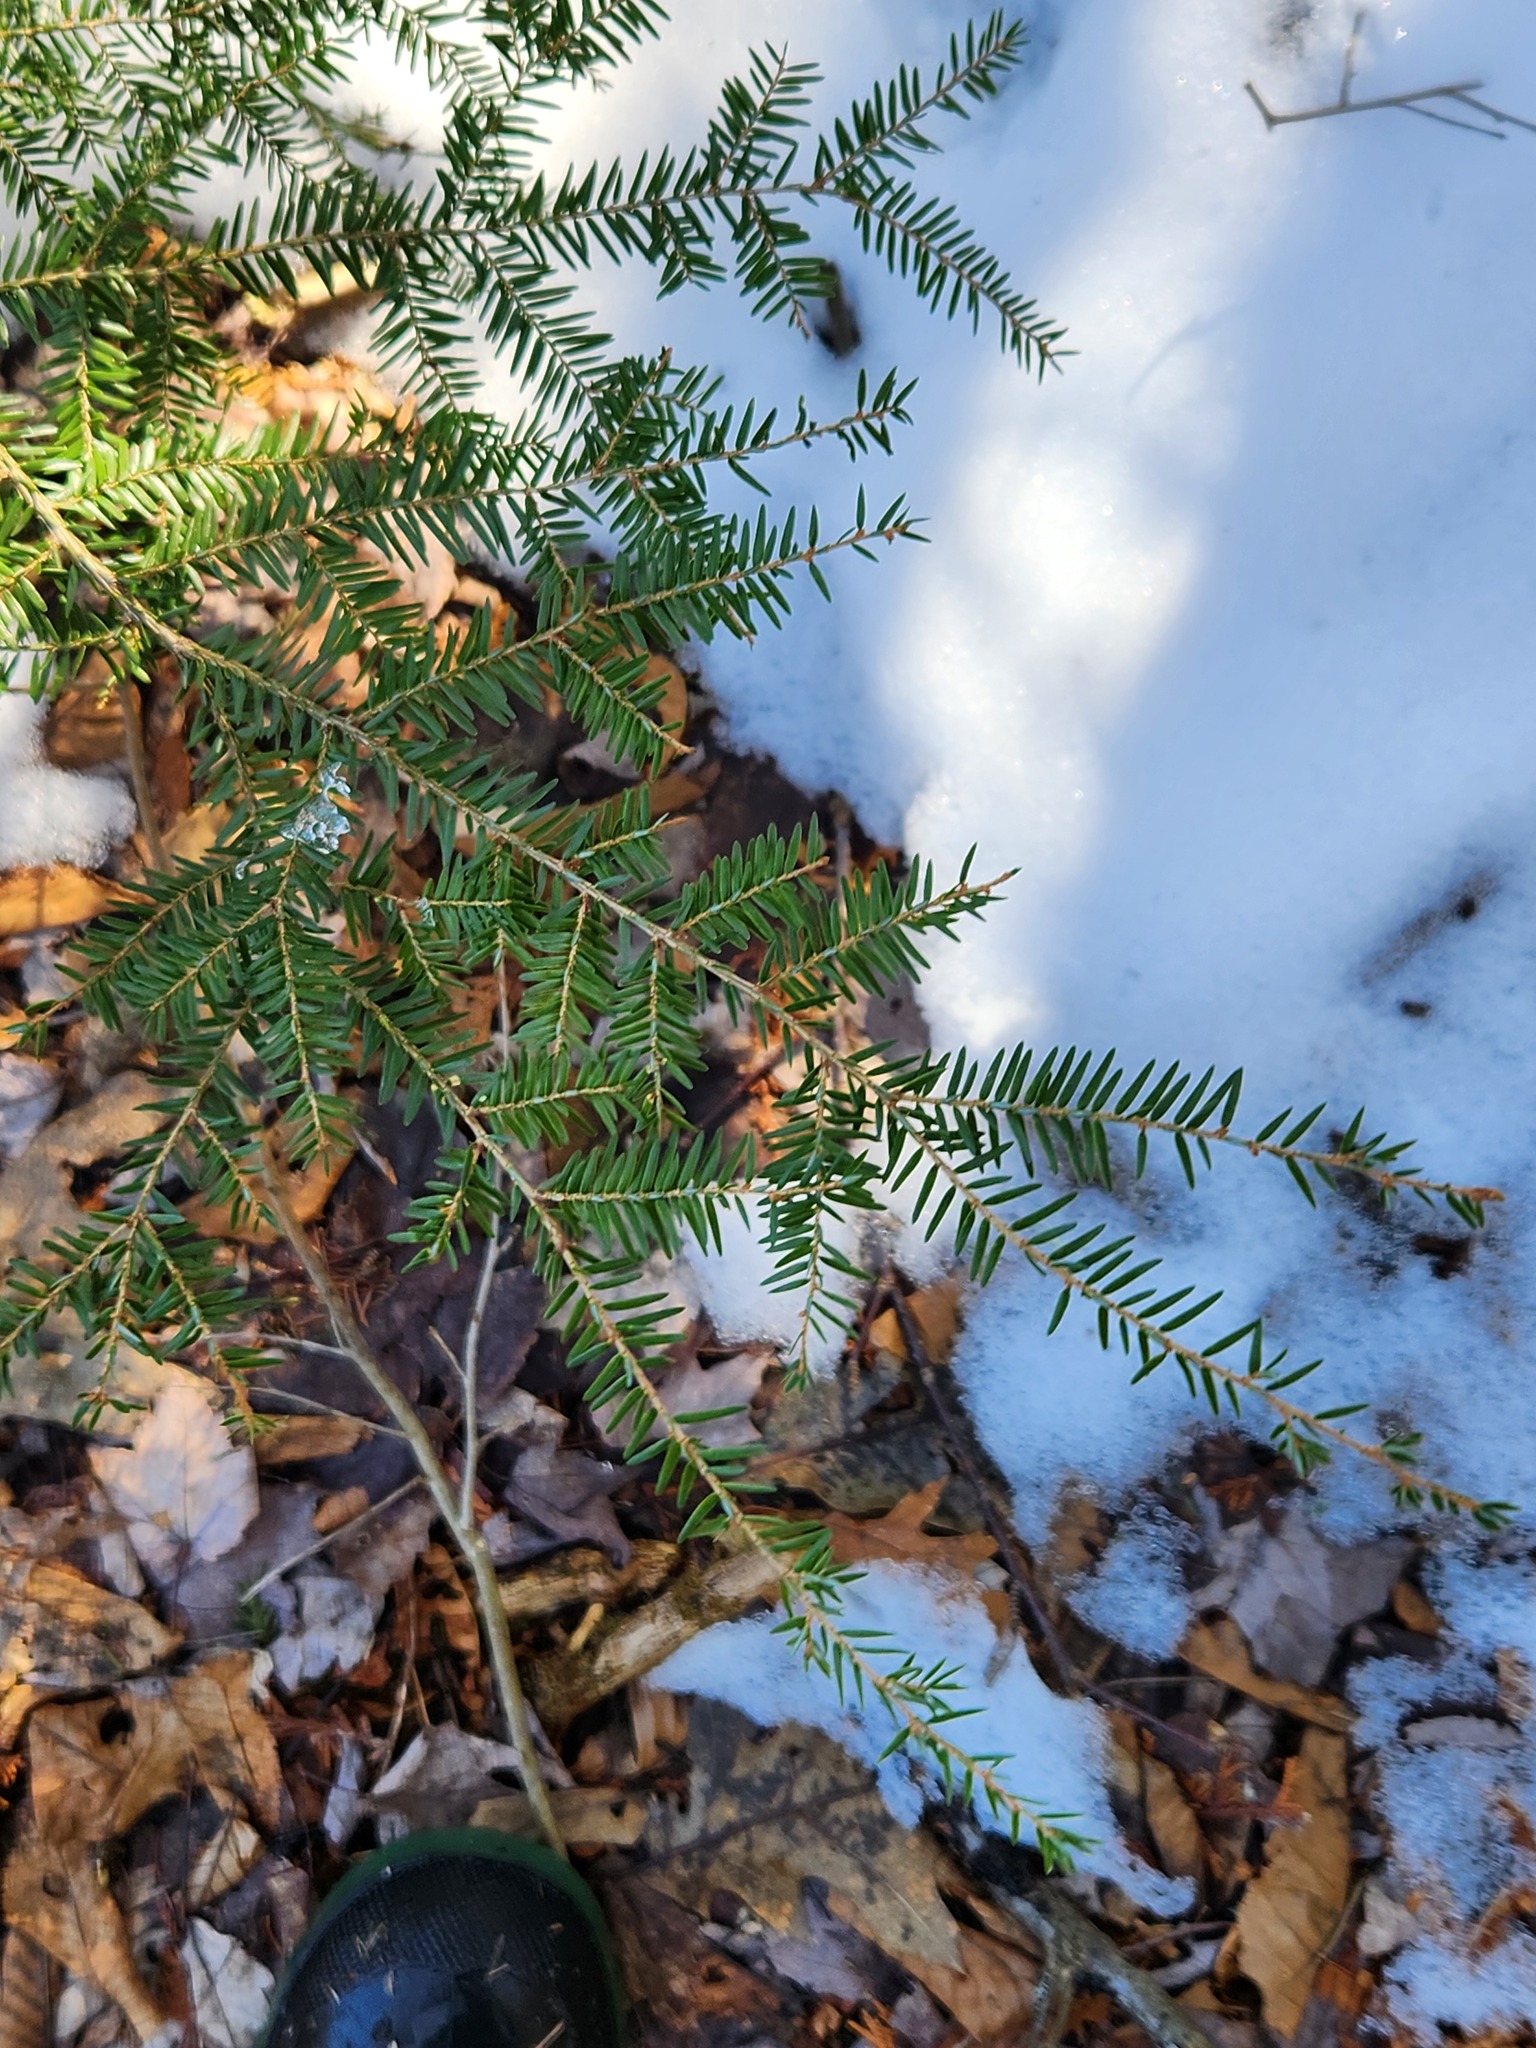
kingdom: Plantae
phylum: Tracheophyta
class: Pinopsida
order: Pinales
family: Pinaceae
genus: Tsuga
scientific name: Tsuga canadensis
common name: Eastern hemlock
